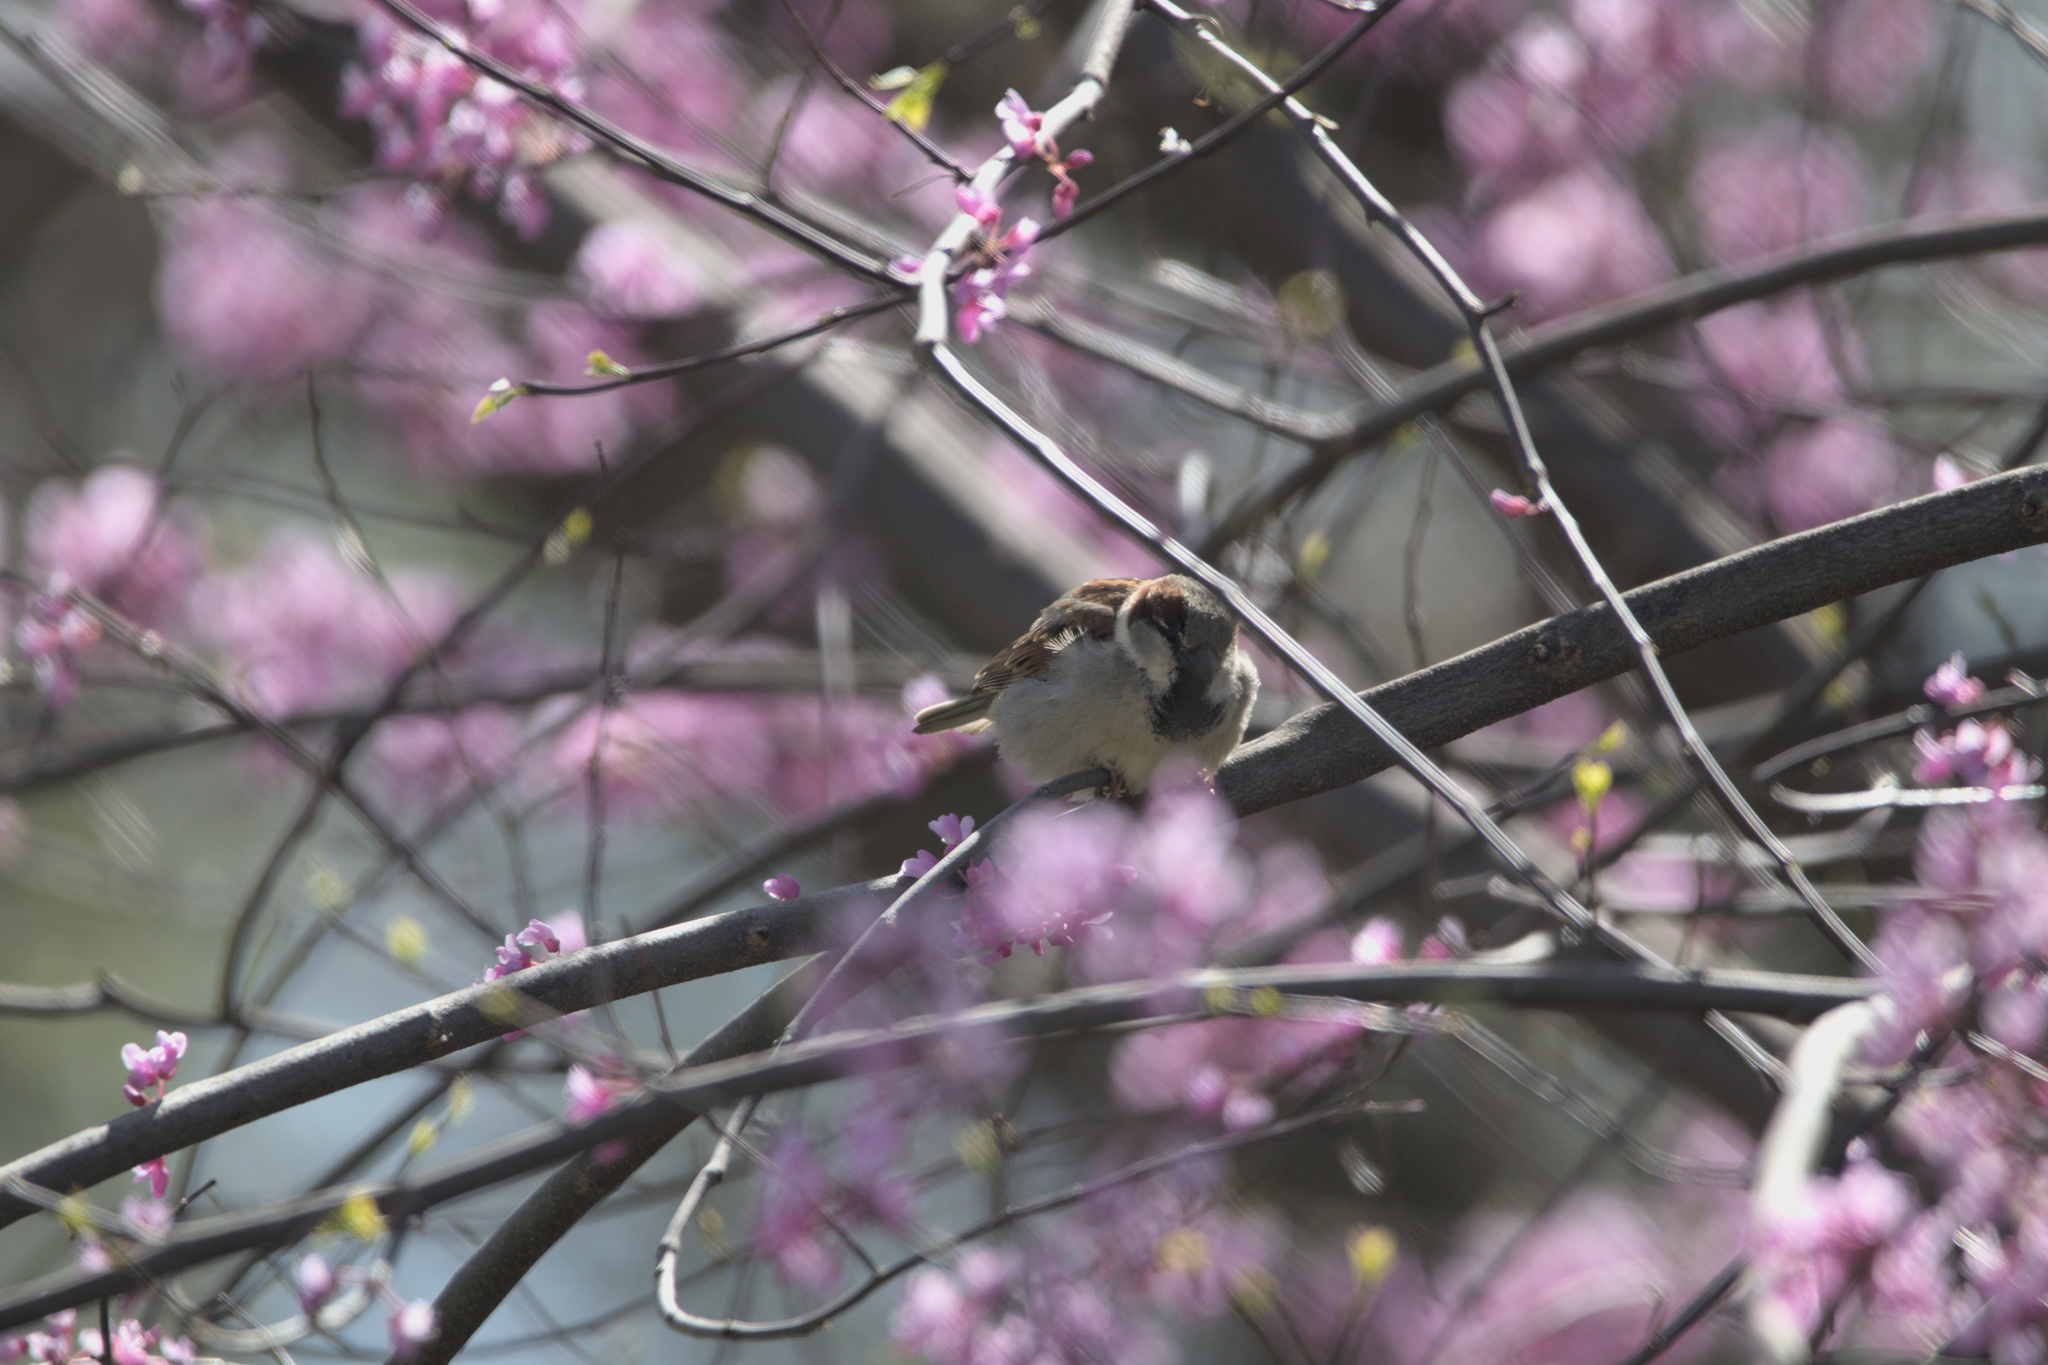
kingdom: Animalia
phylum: Chordata
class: Aves
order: Passeriformes
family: Passeridae
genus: Passer
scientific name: Passer domesticus
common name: House sparrow
